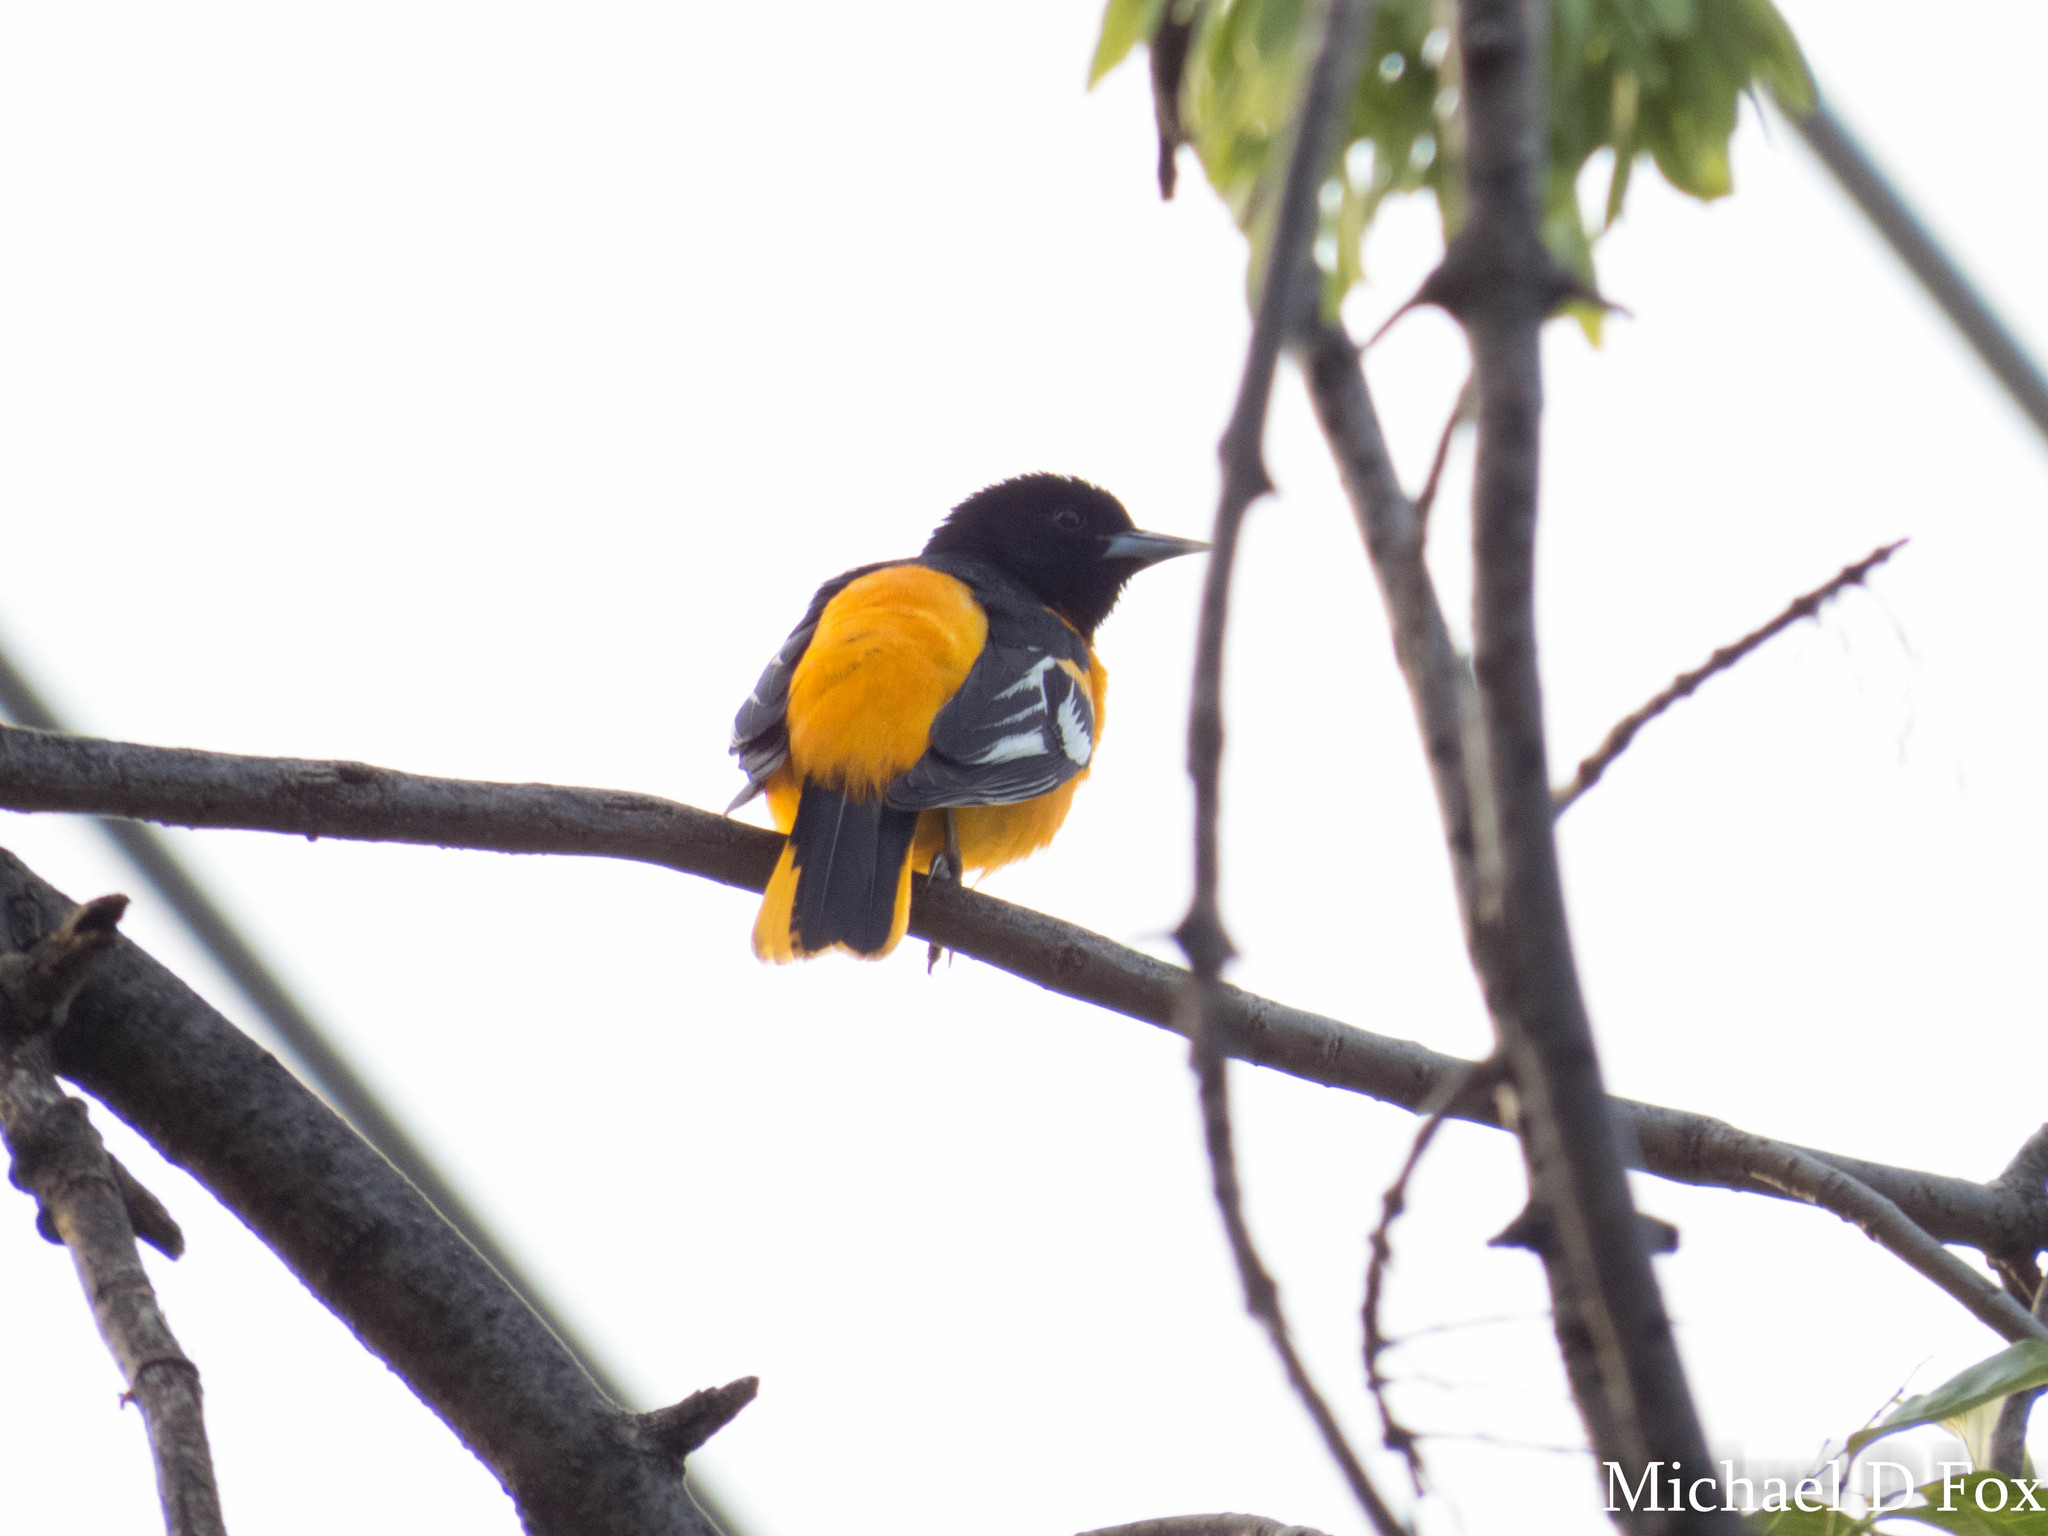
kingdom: Animalia
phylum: Chordata
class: Aves
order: Passeriformes
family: Icteridae
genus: Icterus
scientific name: Icterus galbula
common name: Baltimore oriole
